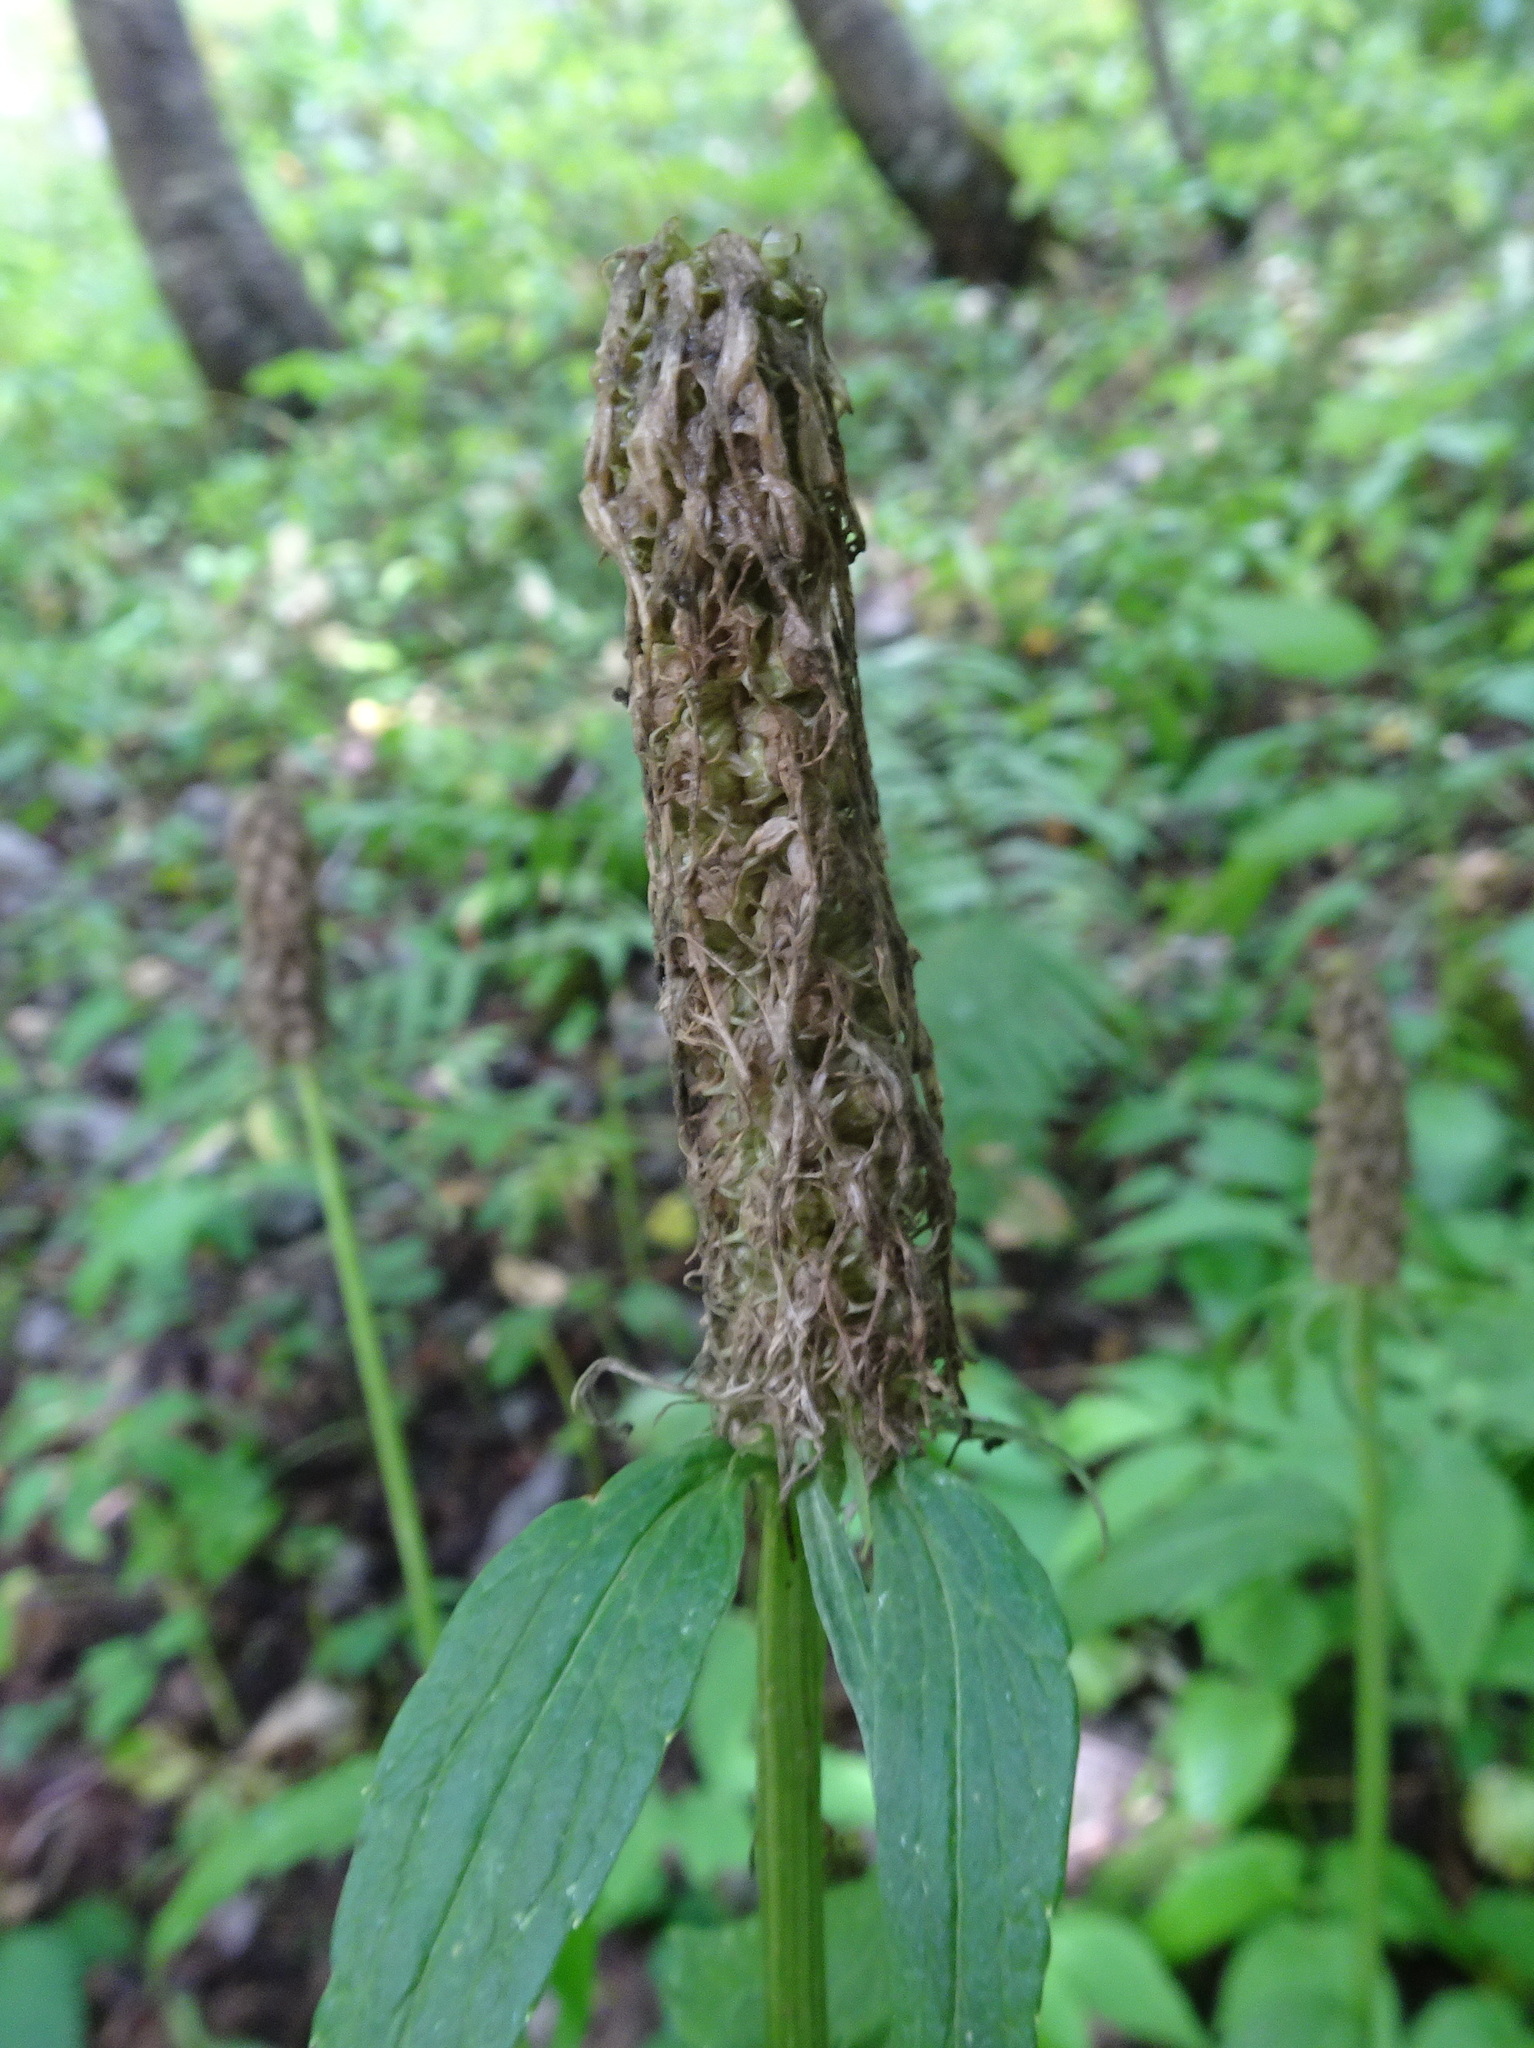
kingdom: Plantae
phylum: Tracheophyta
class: Magnoliopsida
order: Asterales
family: Campanulaceae
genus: Phyteuma
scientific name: Phyteuma spicatum
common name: Spiked rampion
